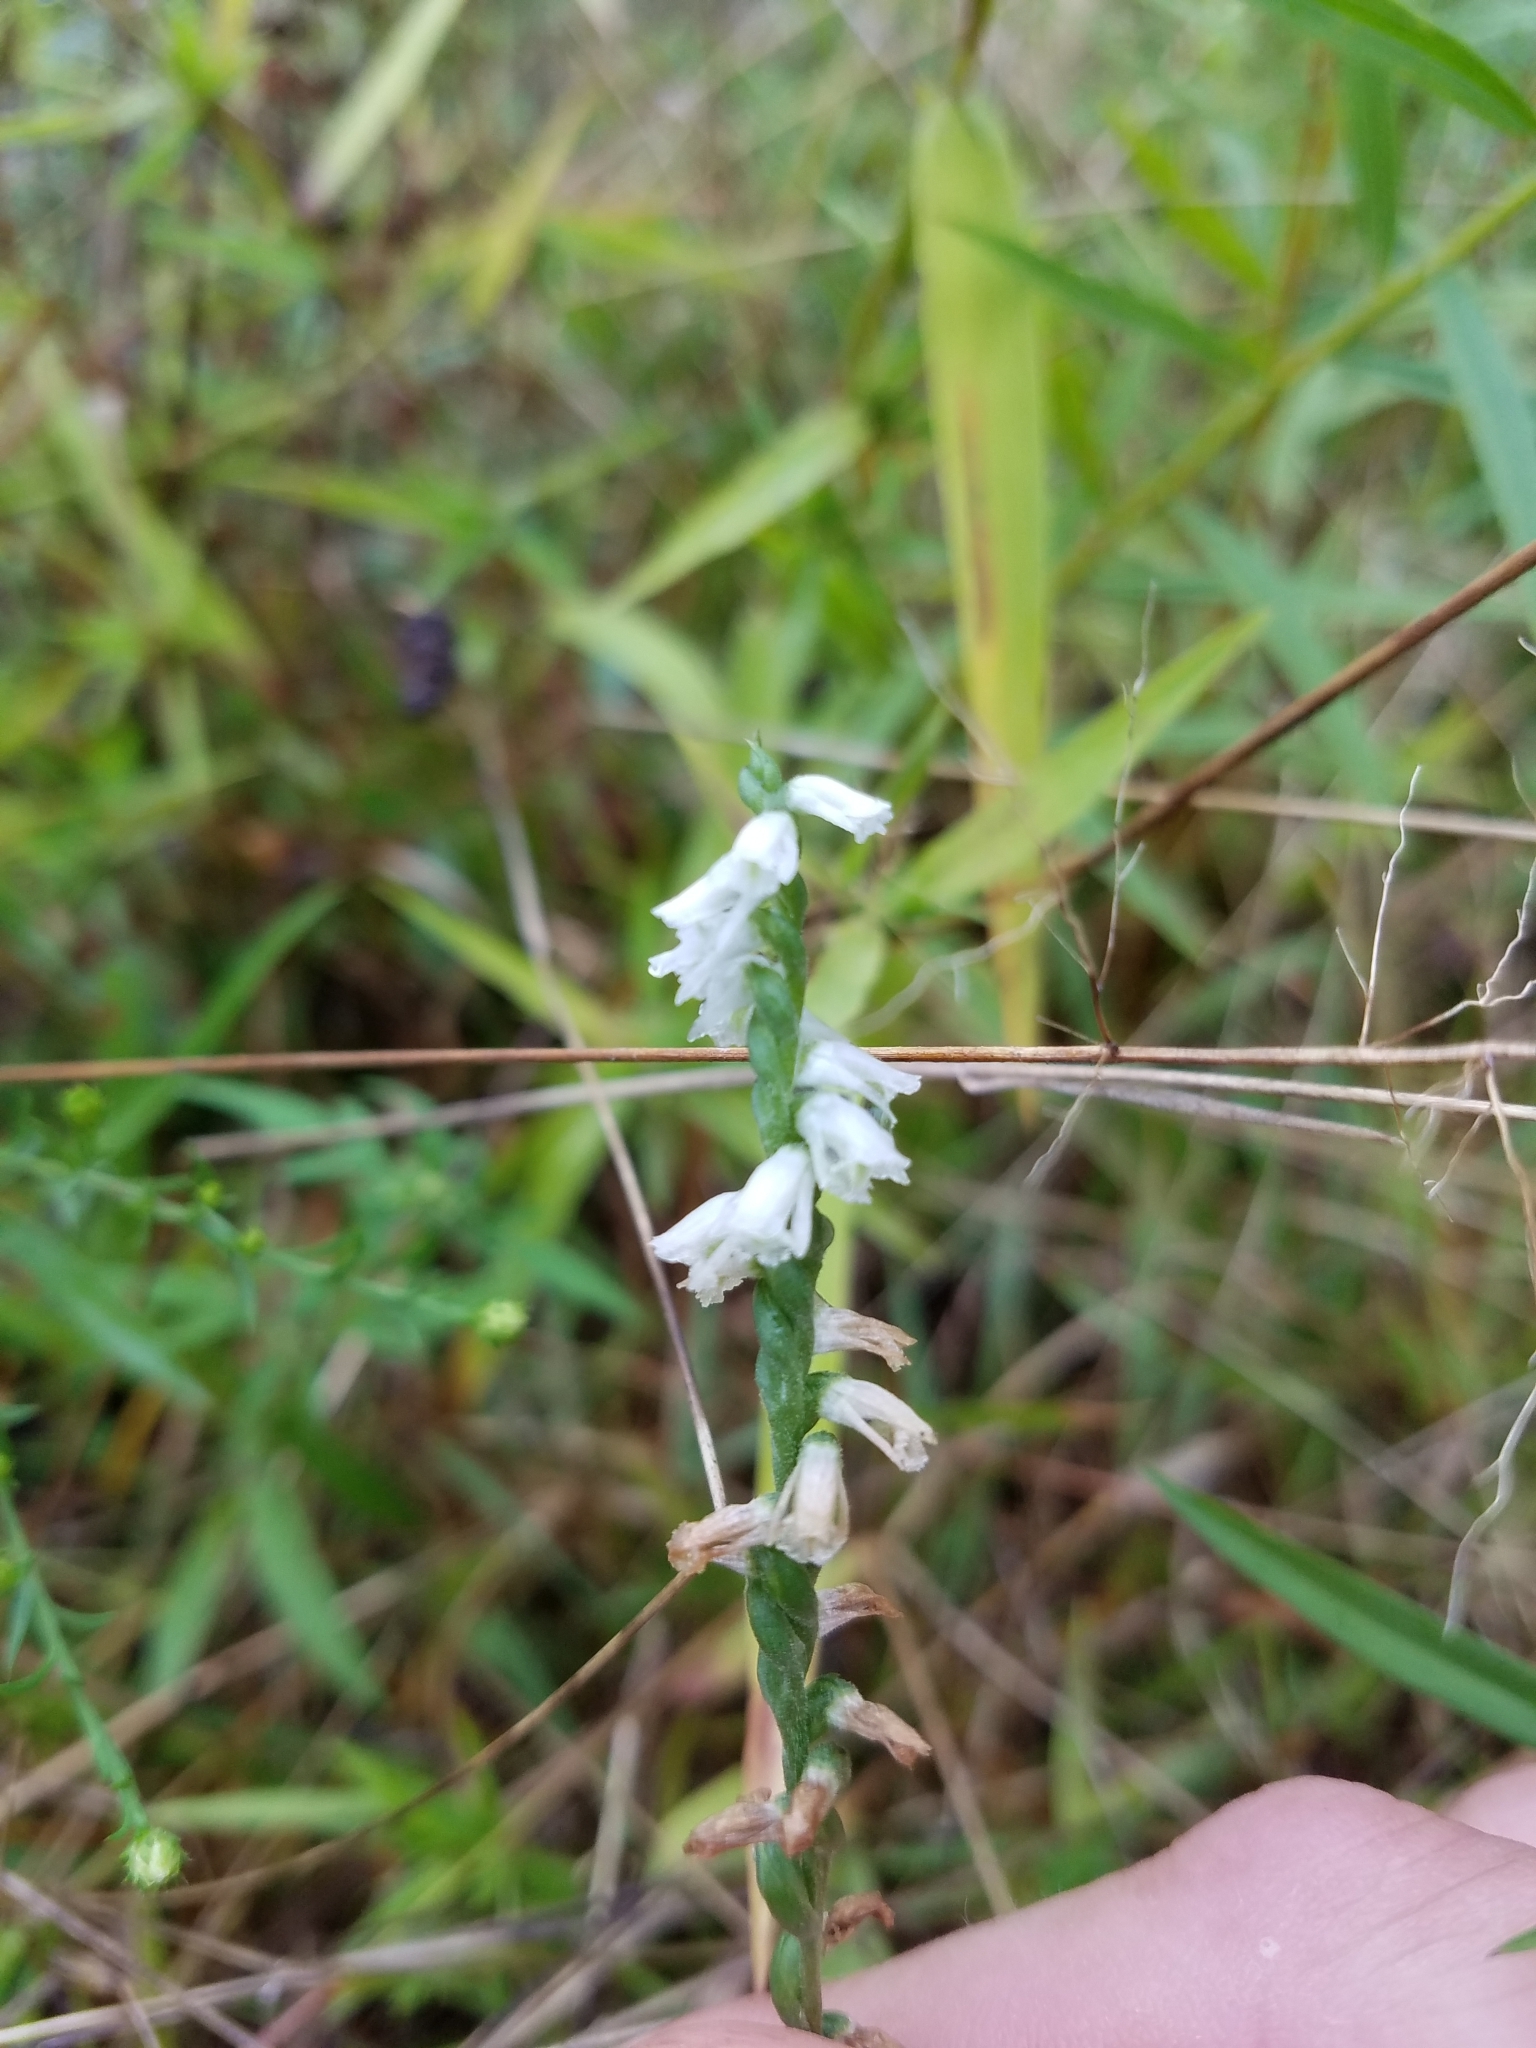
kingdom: Plantae
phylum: Tracheophyta
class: Liliopsida
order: Asparagales
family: Orchidaceae
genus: Spiranthes
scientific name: Spiranthes lacera
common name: Northern slender ladies'-tresses
